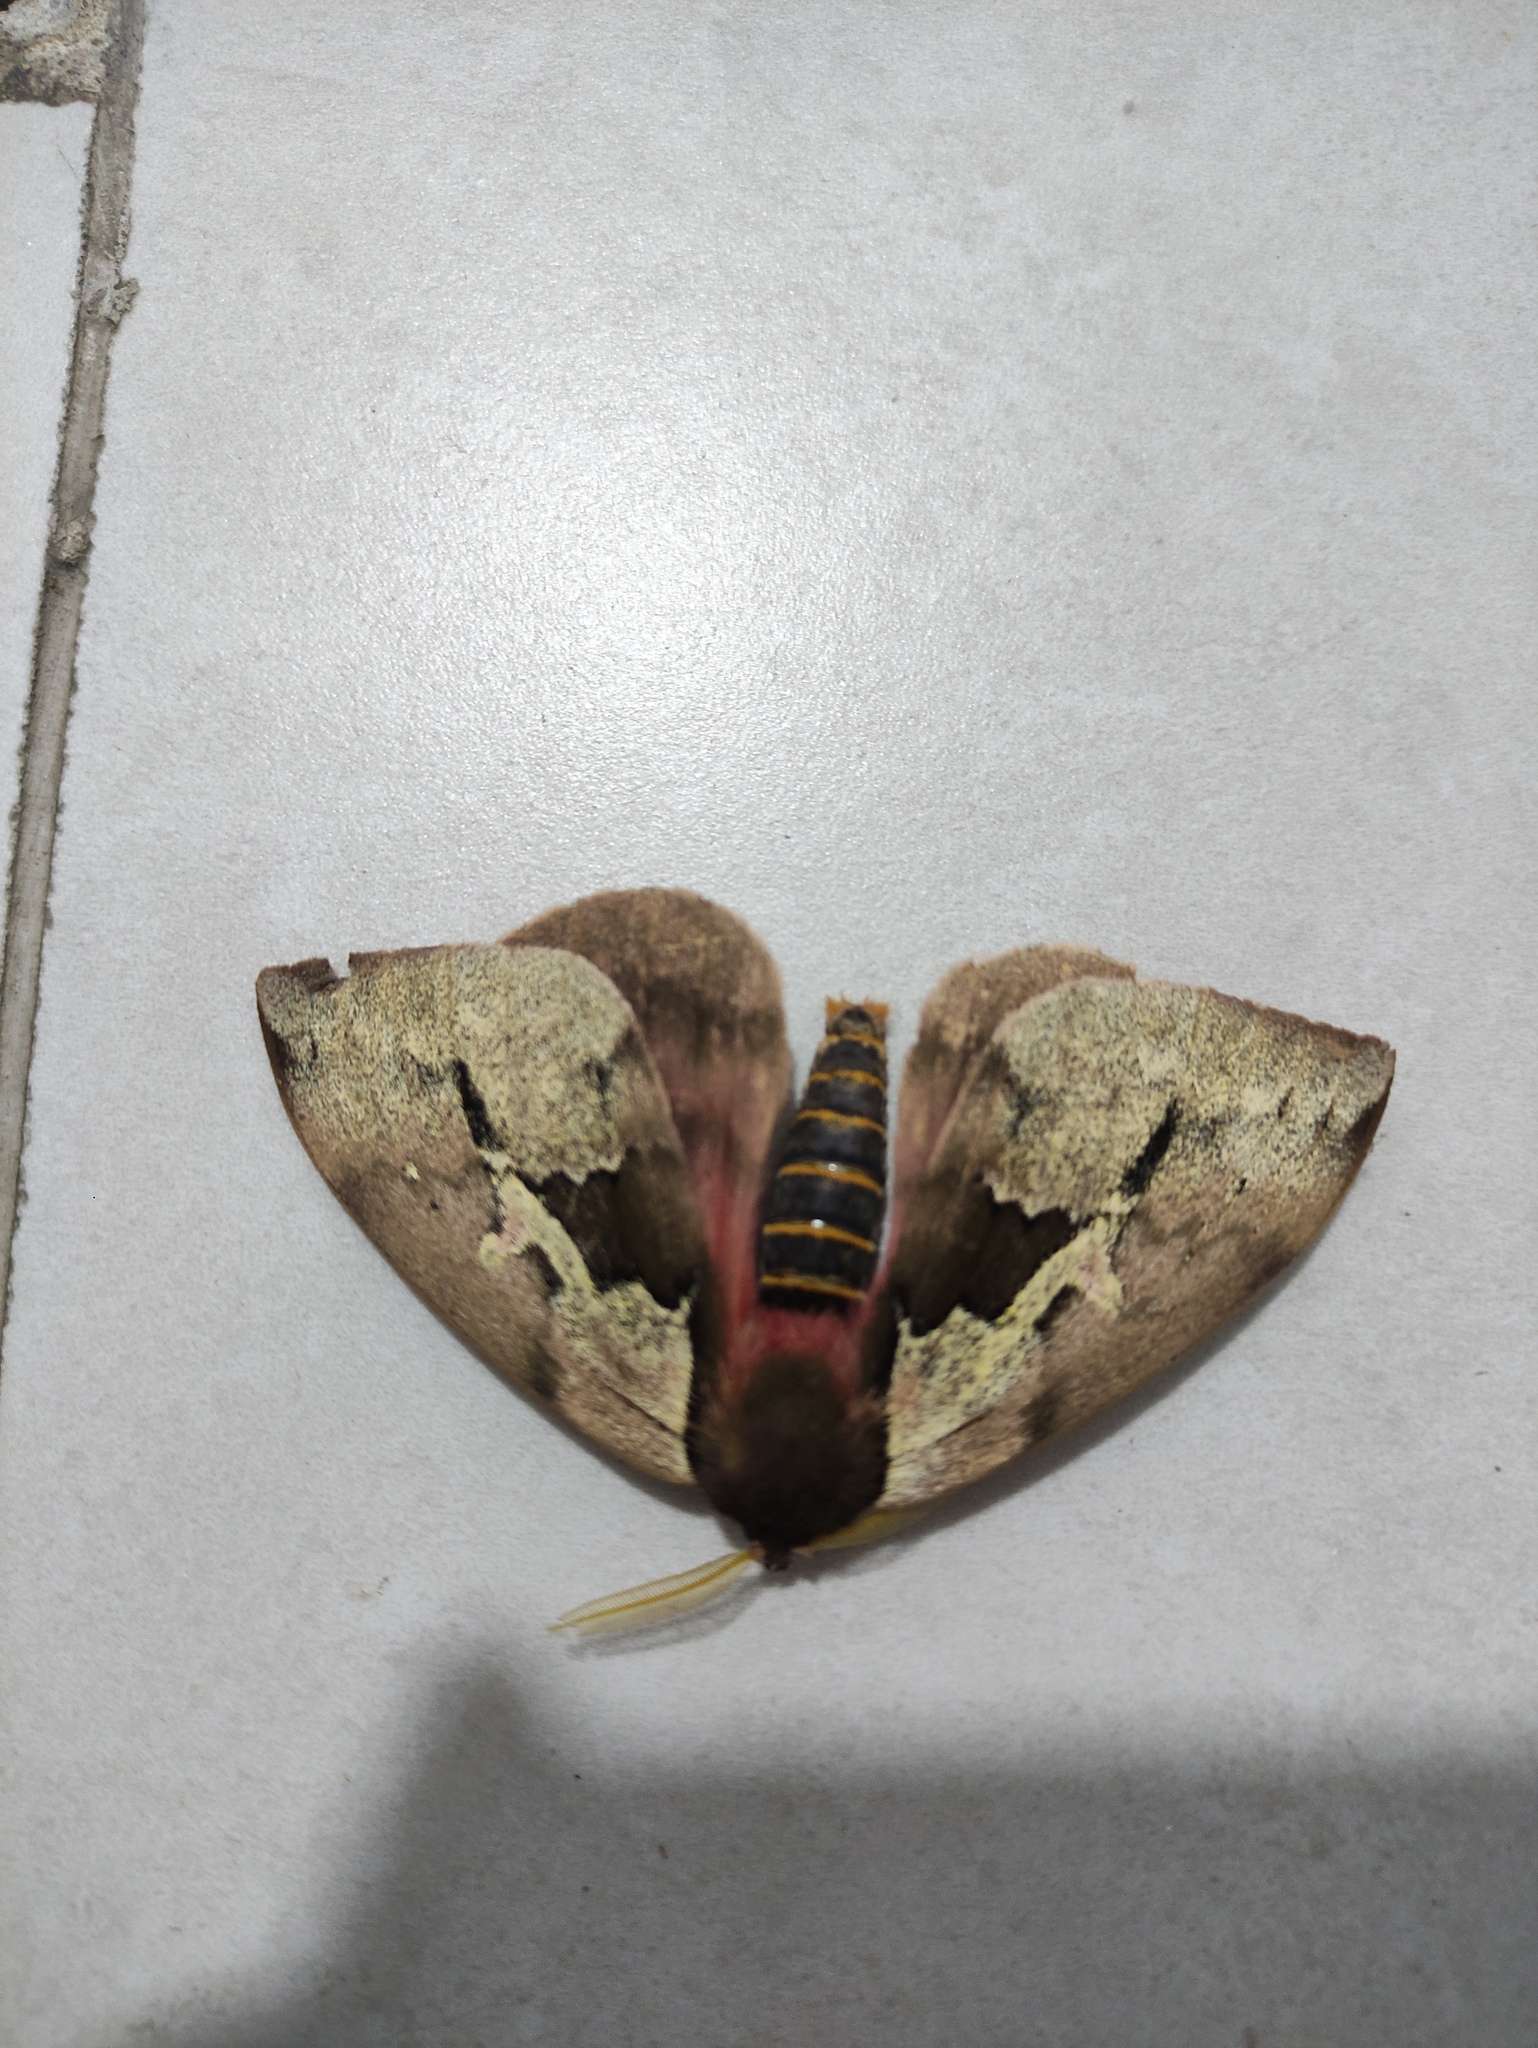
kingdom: Animalia
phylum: Arthropoda
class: Insecta
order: Lepidoptera
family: Saturniidae
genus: Dirphiopsis
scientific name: Dirphiopsis multicolor
